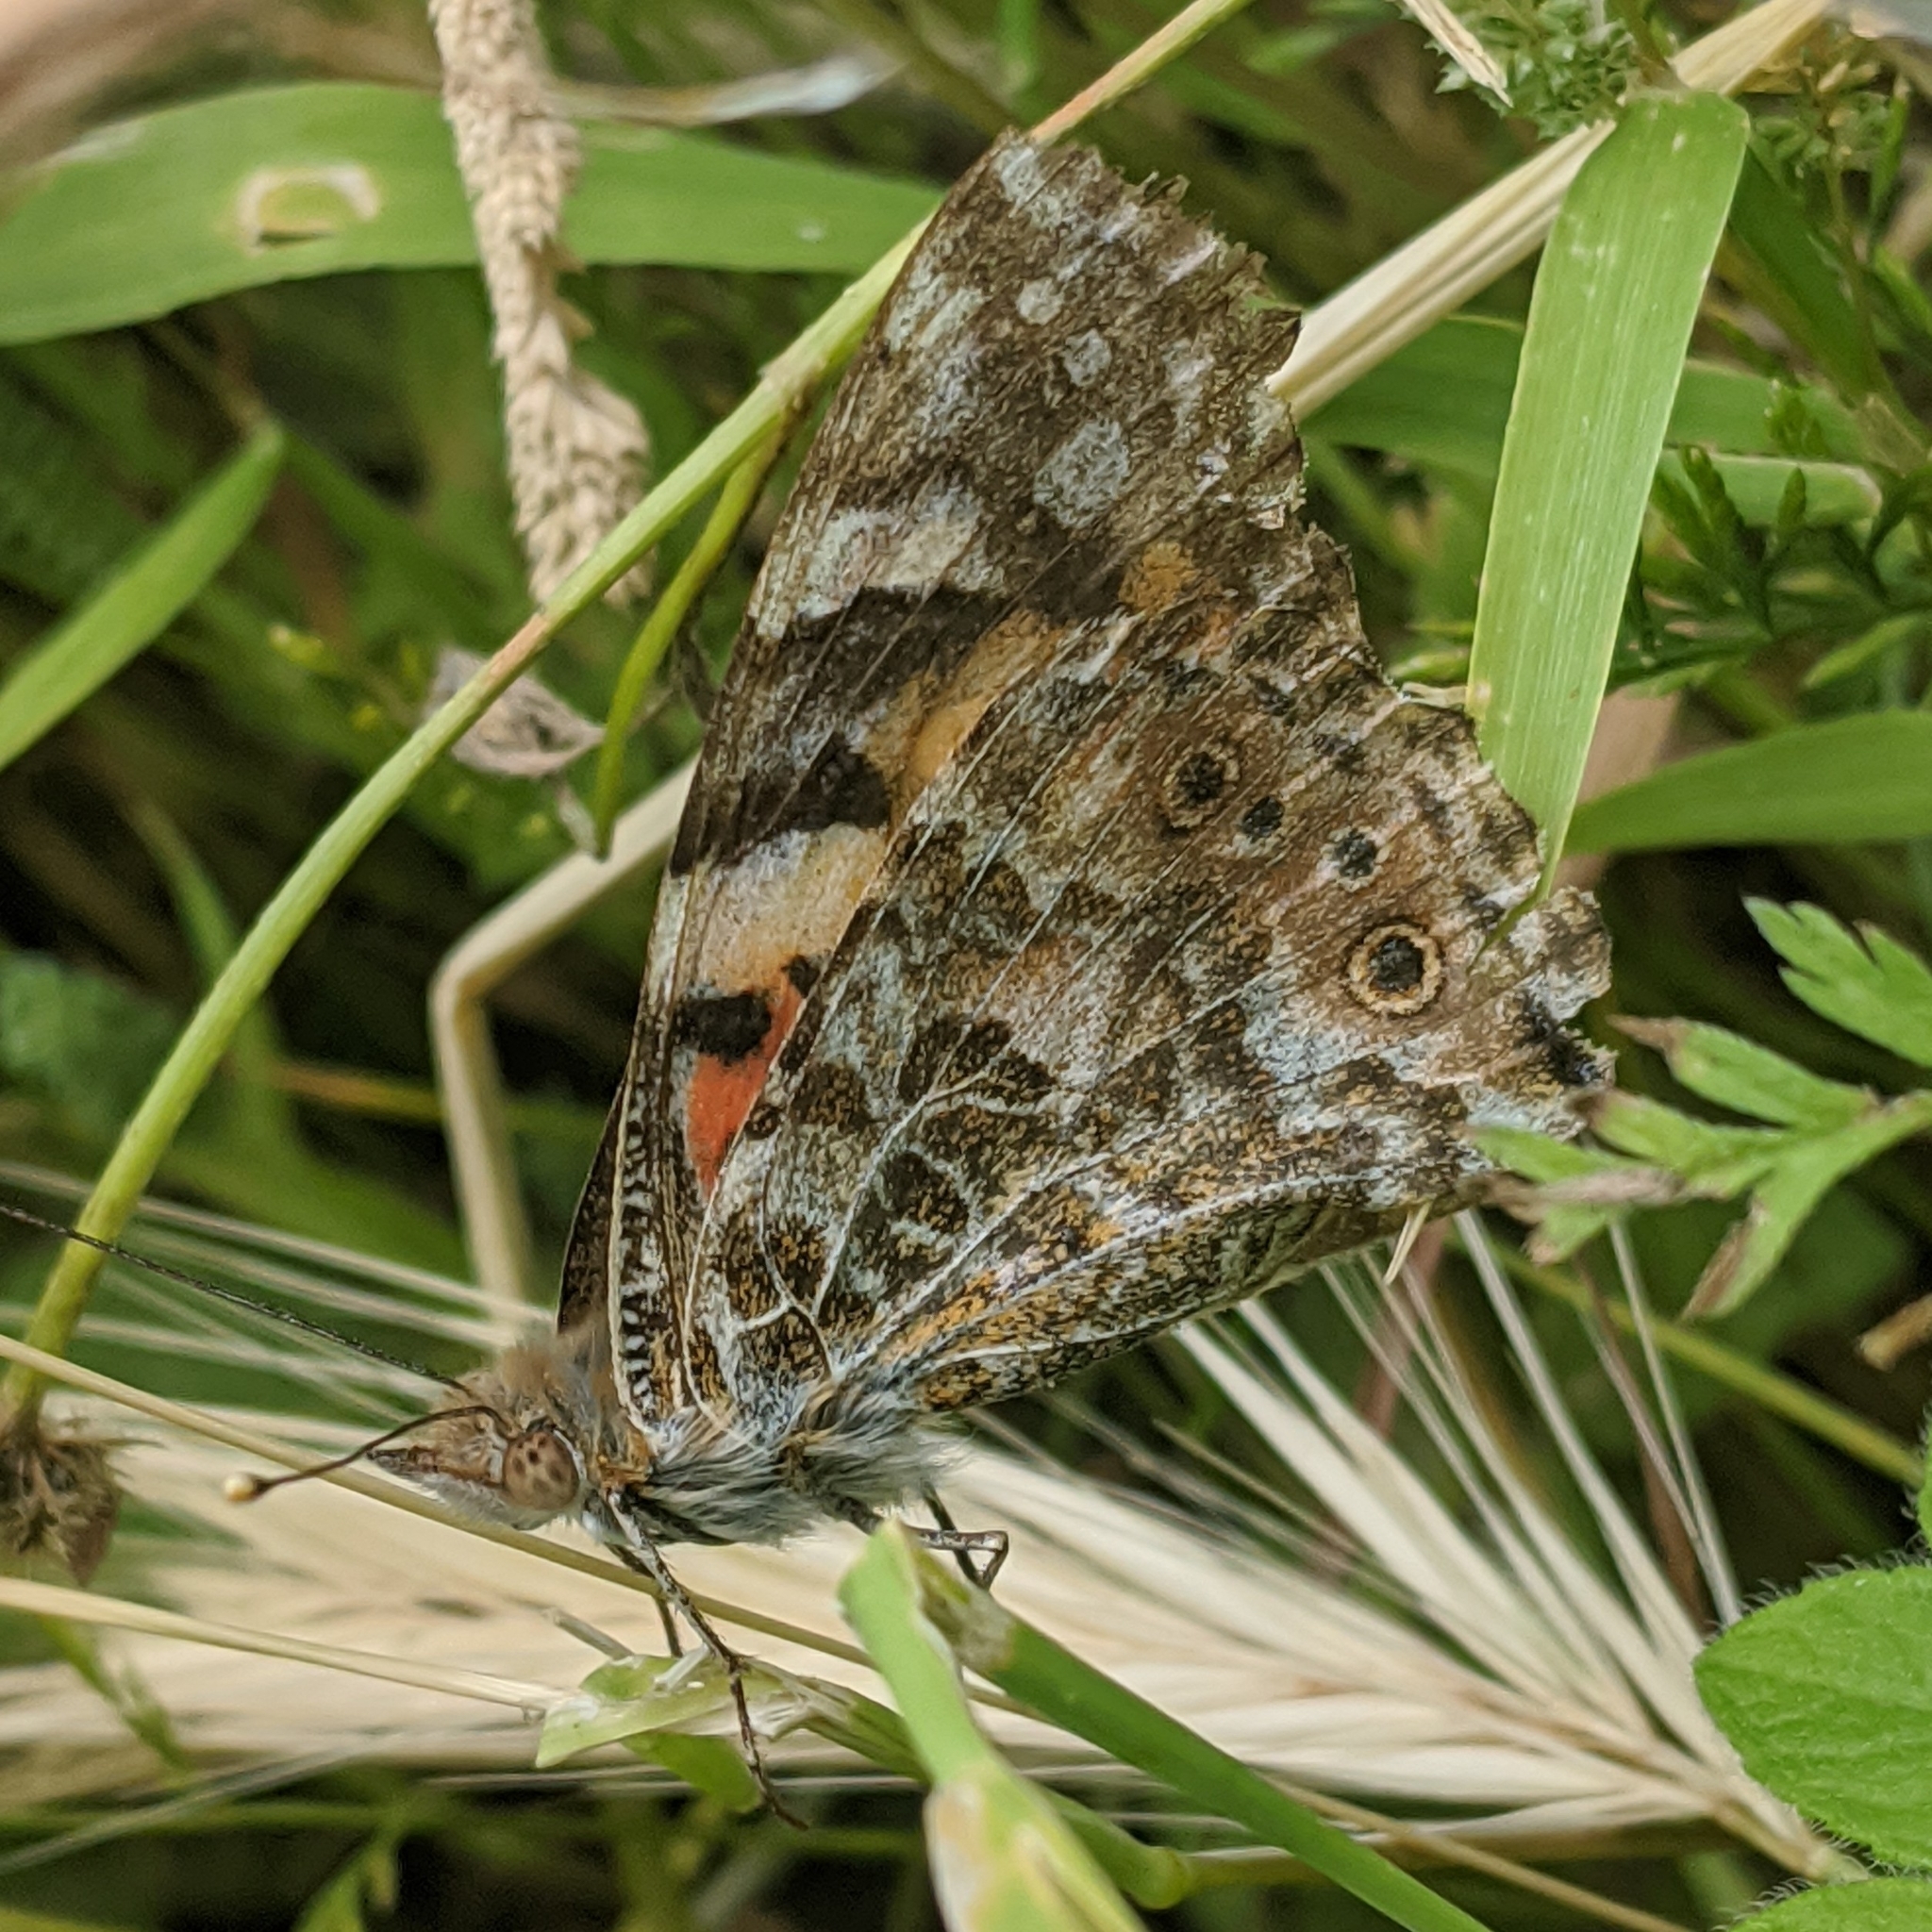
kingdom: Animalia
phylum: Arthropoda
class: Insecta
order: Lepidoptera
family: Nymphalidae
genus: Vanessa
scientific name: Vanessa cardui
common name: Painted lady
